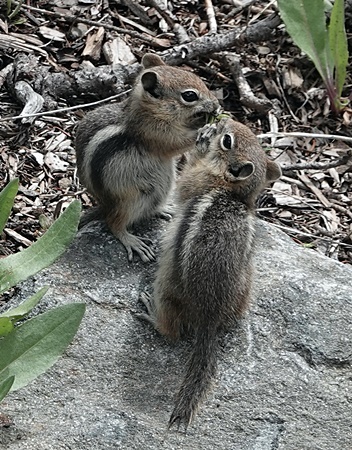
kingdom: Animalia
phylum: Chordata
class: Mammalia
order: Rodentia
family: Sciuridae
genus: Callospermophilus
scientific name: Callospermophilus lateralis
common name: Golden-mantled ground squirrel
